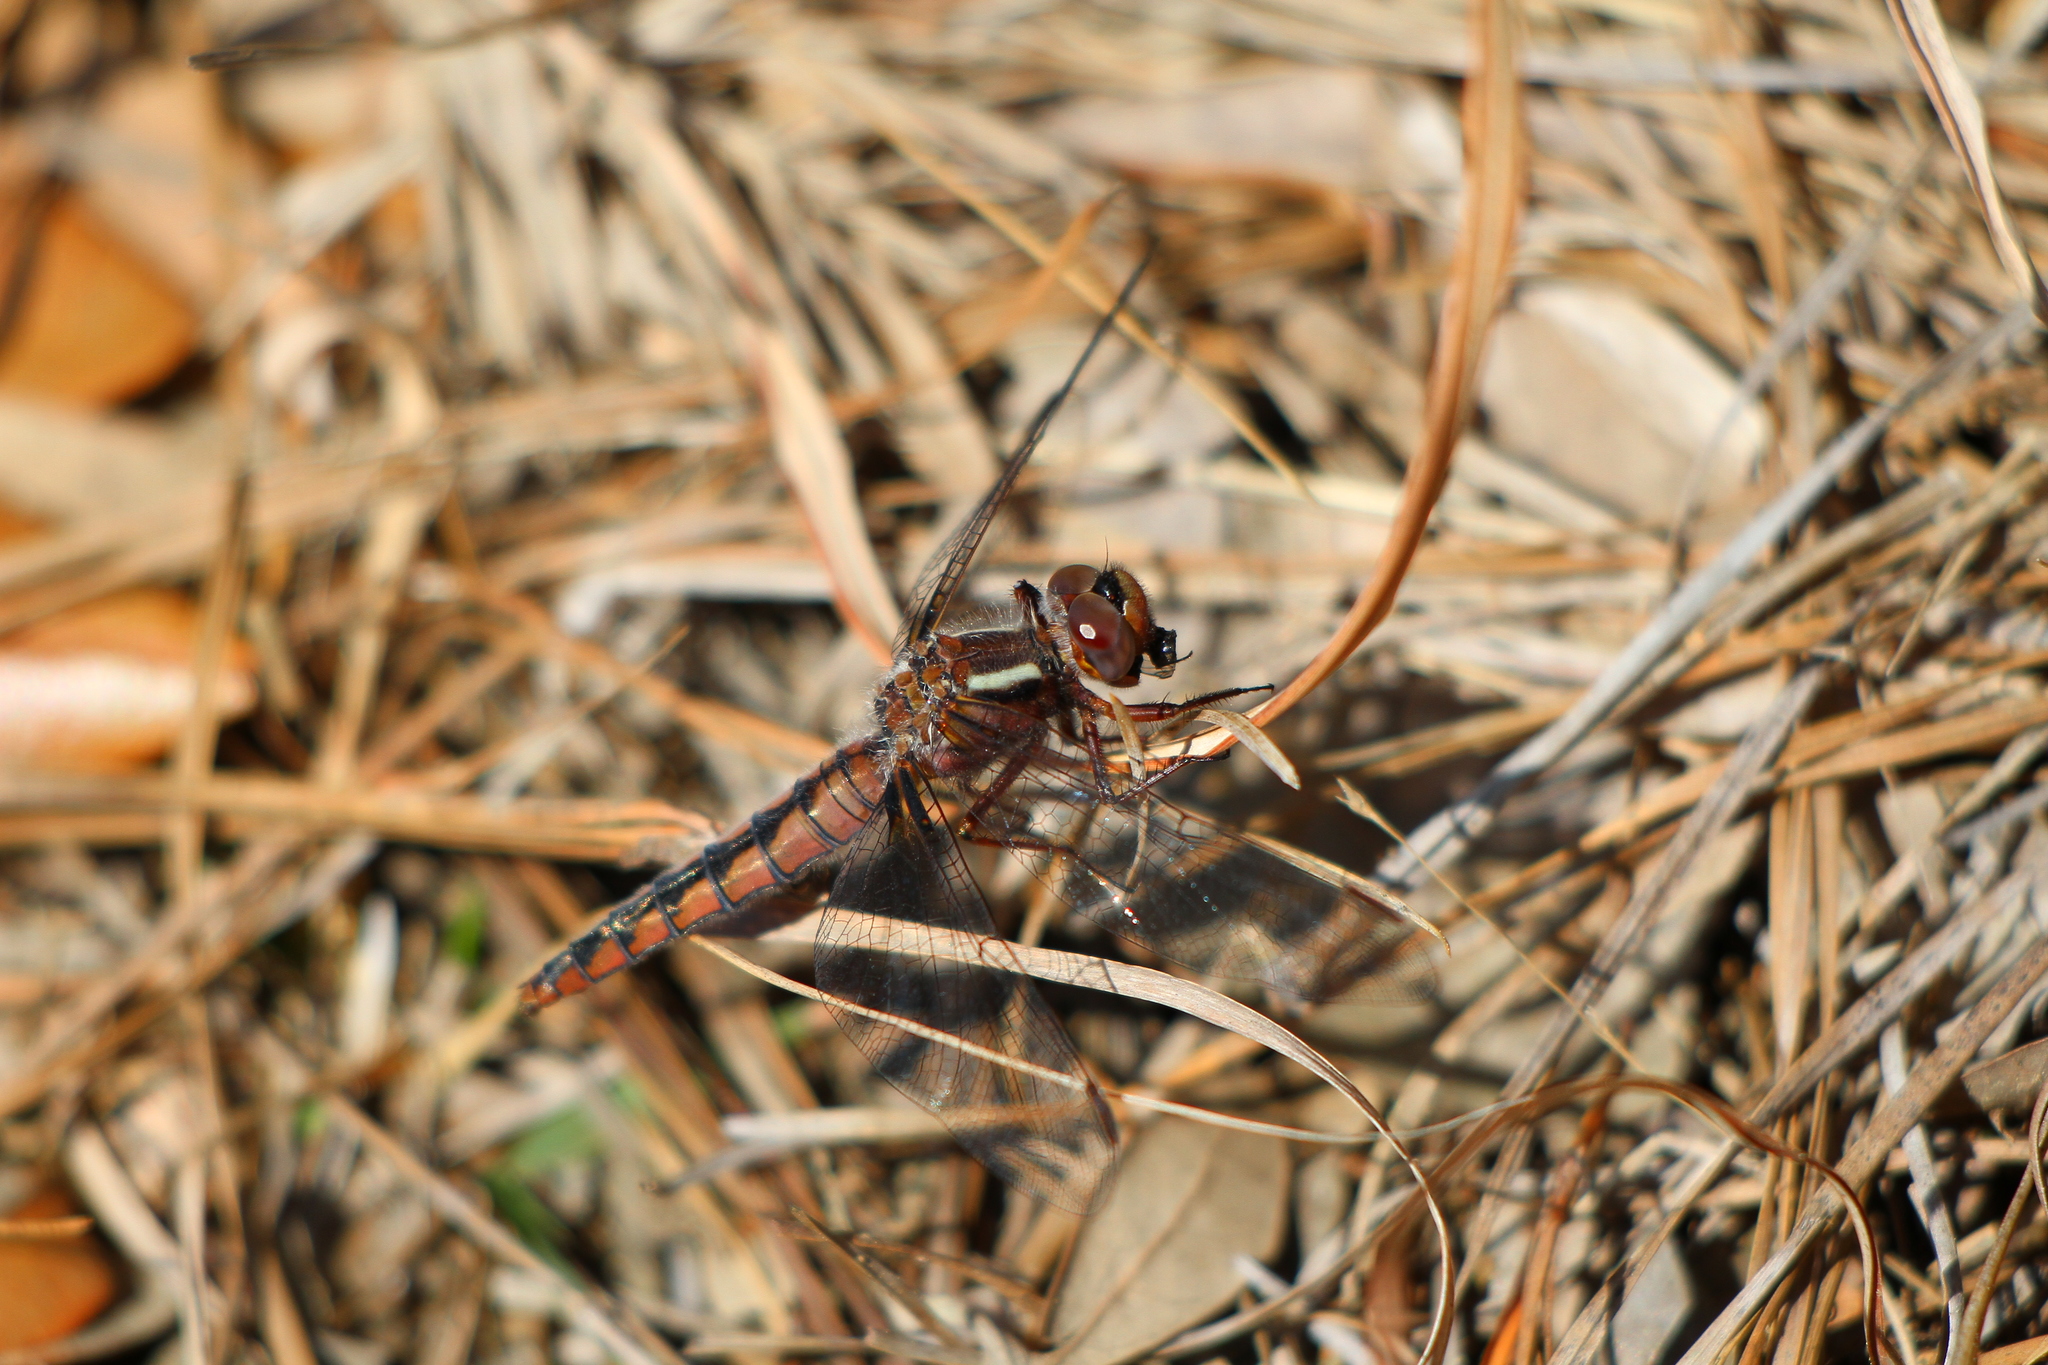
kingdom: Animalia
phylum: Arthropoda
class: Insecta
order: Odonata
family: Libellulidae
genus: Ladona
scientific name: Ladona deplanata
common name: Blue corporal
